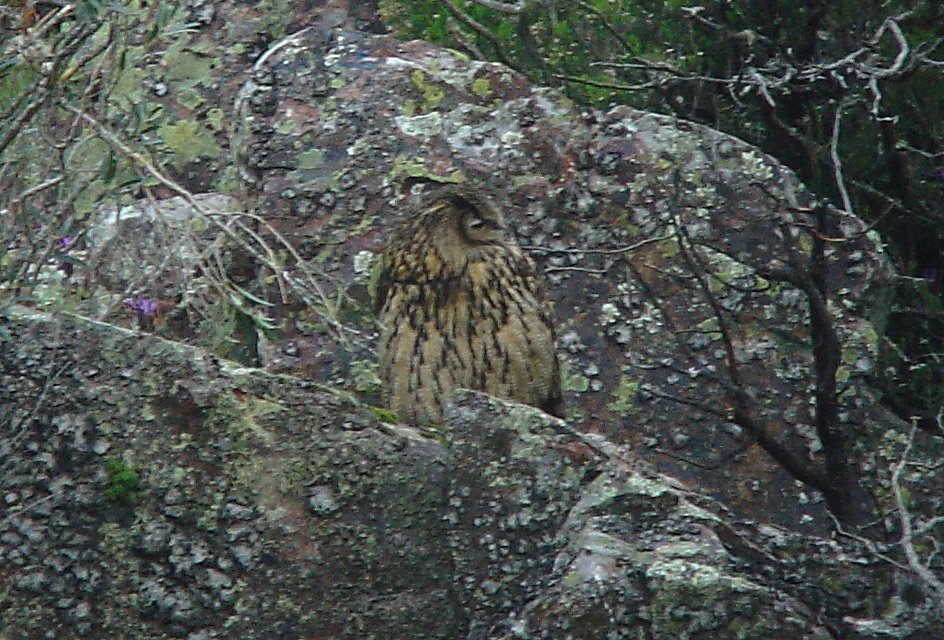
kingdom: Animalia
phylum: Chordata
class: Aves
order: Strigiformes
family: Strigidae
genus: Bubo
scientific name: Bubo bubo
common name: Eurasian eagle-owl
